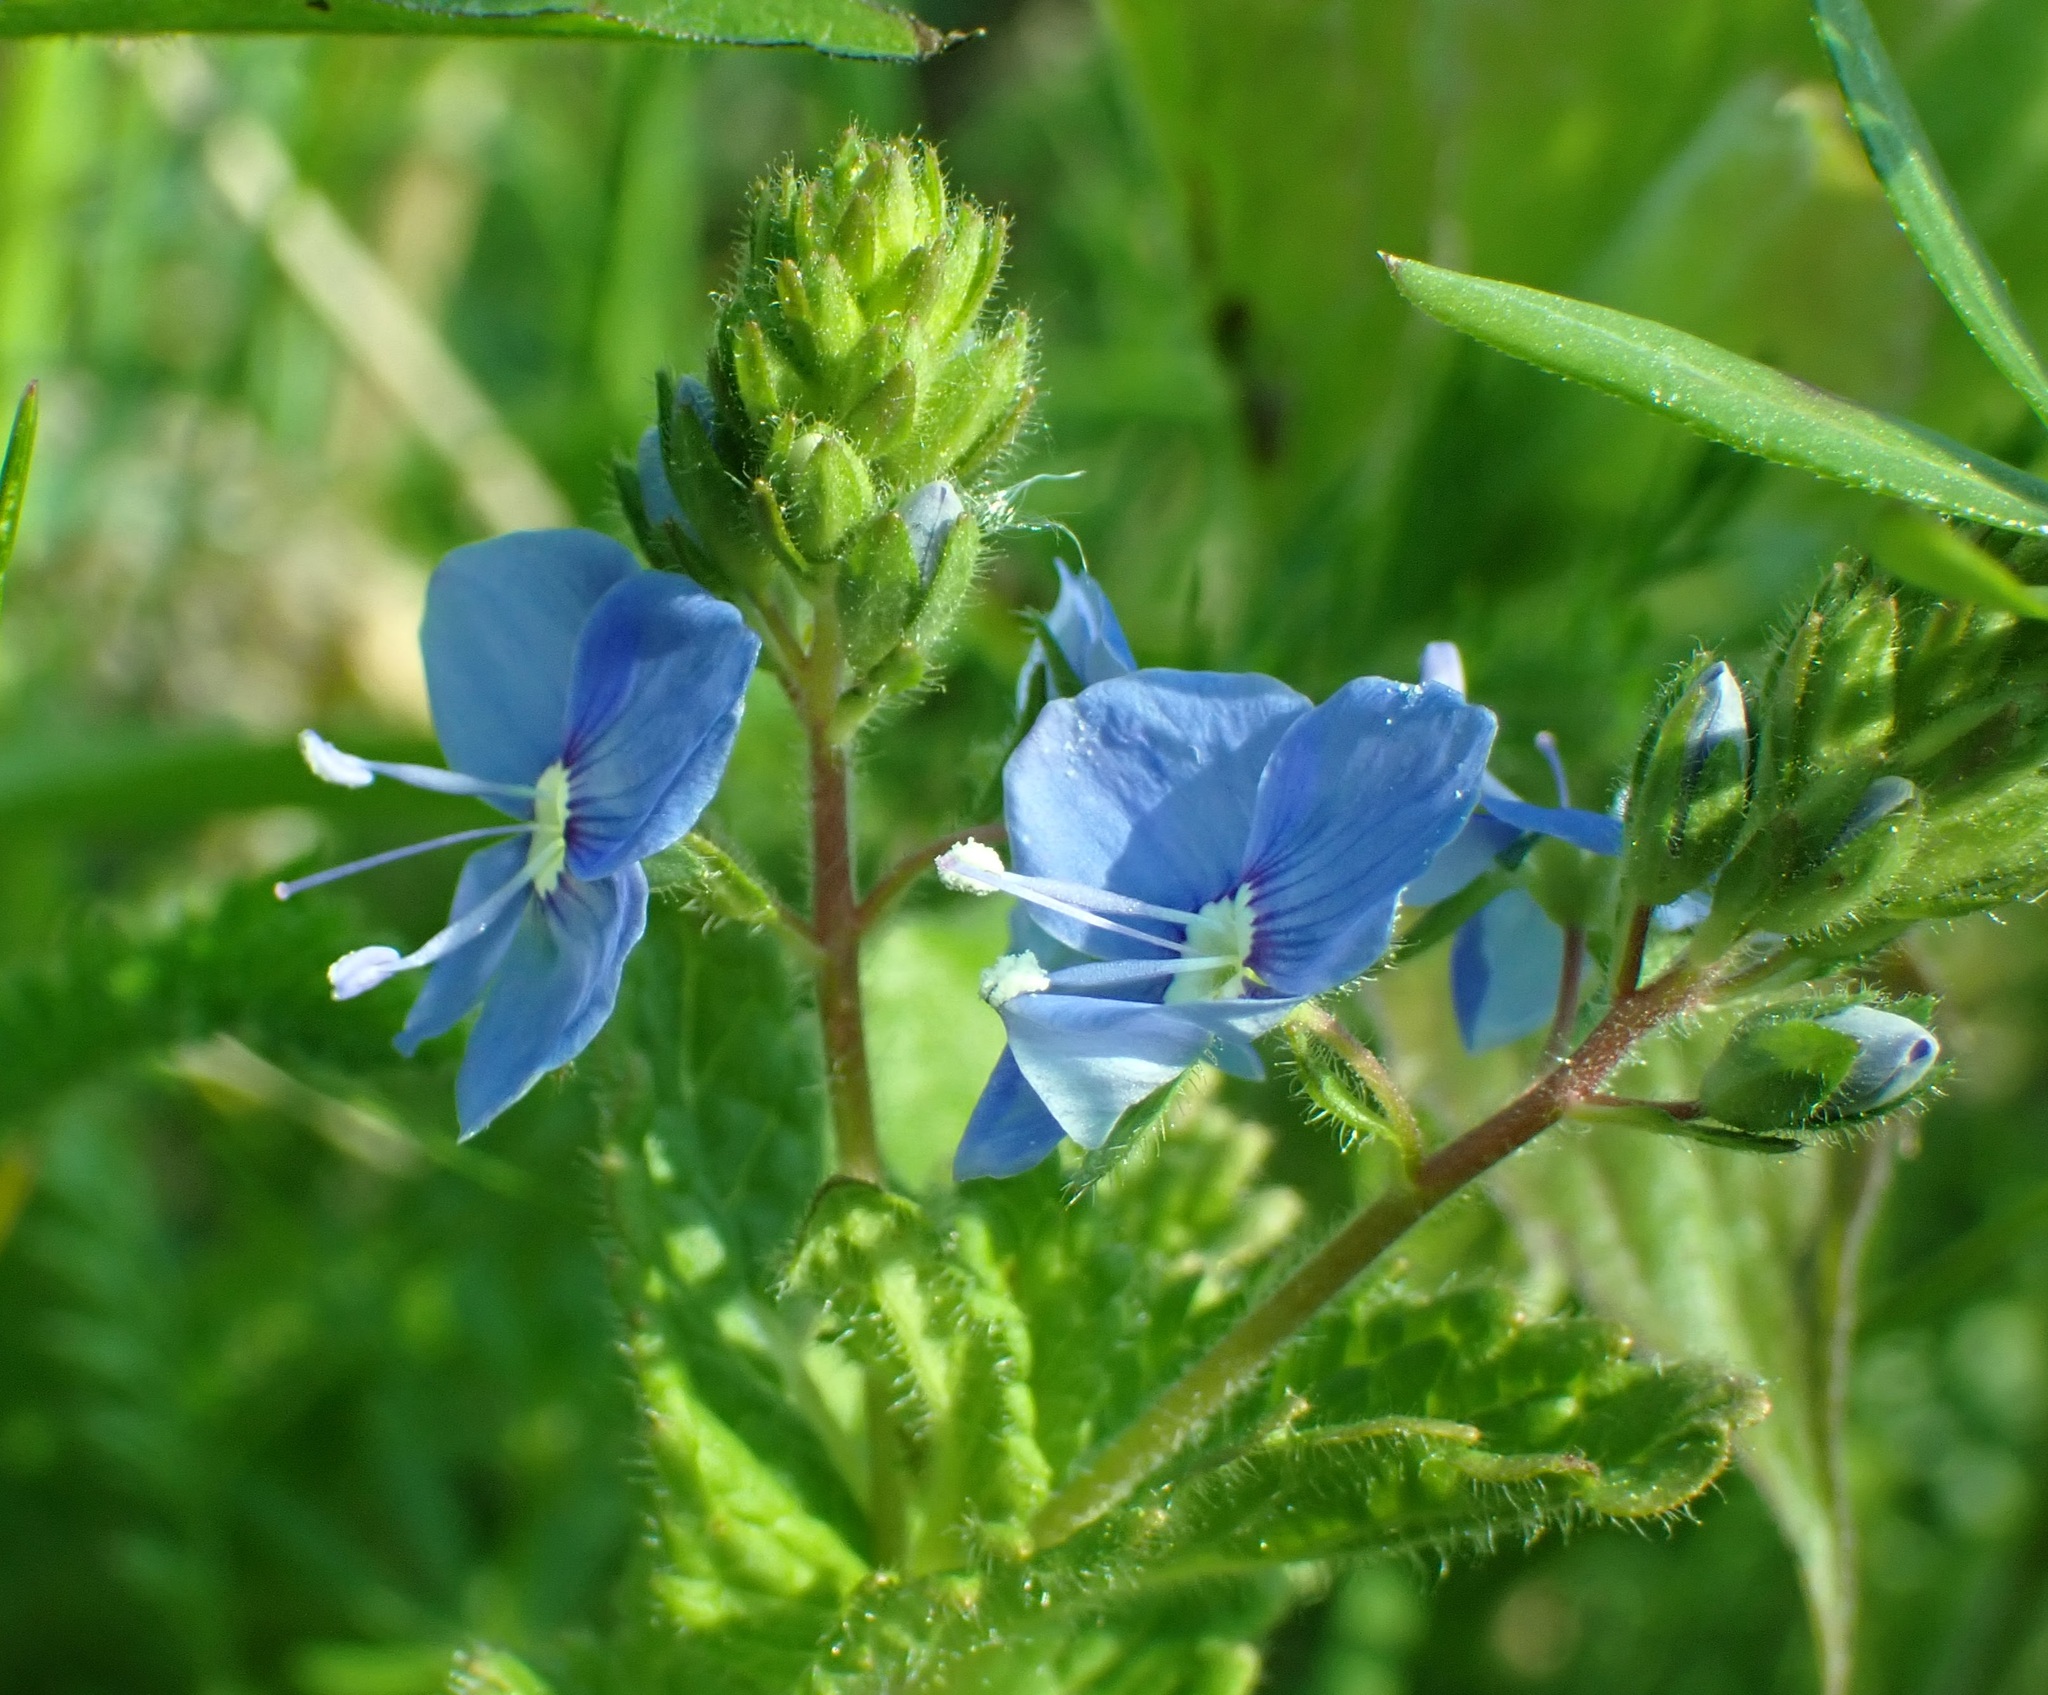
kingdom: Plantae
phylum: Tracheophyta
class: Magnoliopsida
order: Lamiales
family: Plantaginaceae
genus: Veronica
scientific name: Veronica chamaedrys
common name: Germander speedwell
